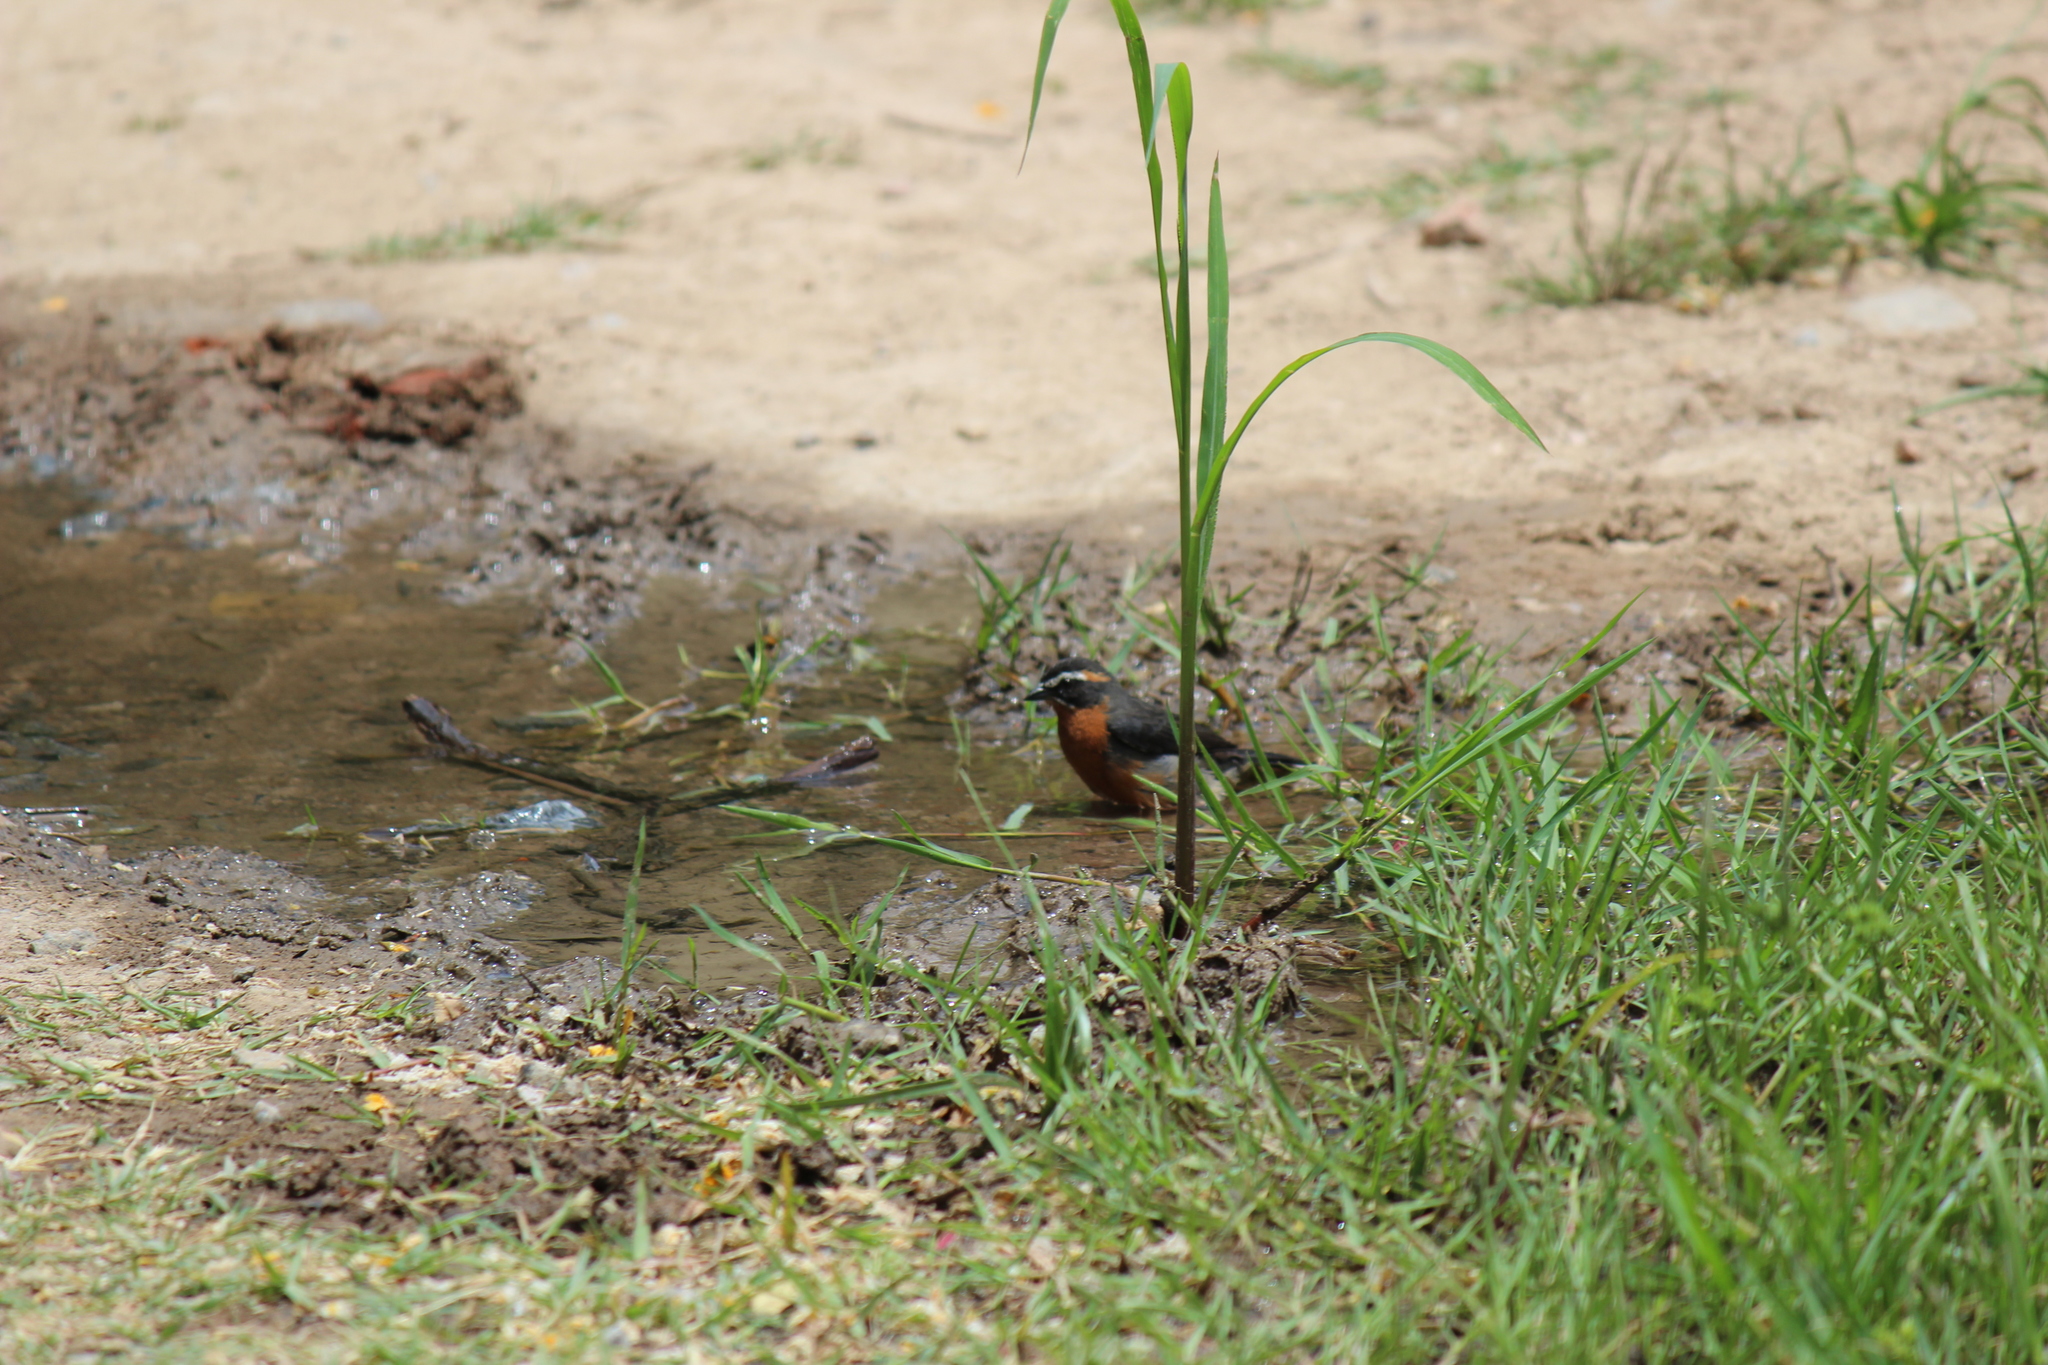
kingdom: Animalia
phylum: Chordata
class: Aves
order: Passeriformes
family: Thraupidae
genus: Poospiza
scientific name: Poospiza nigrorufa
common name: Black-and-rufous warbling finch
